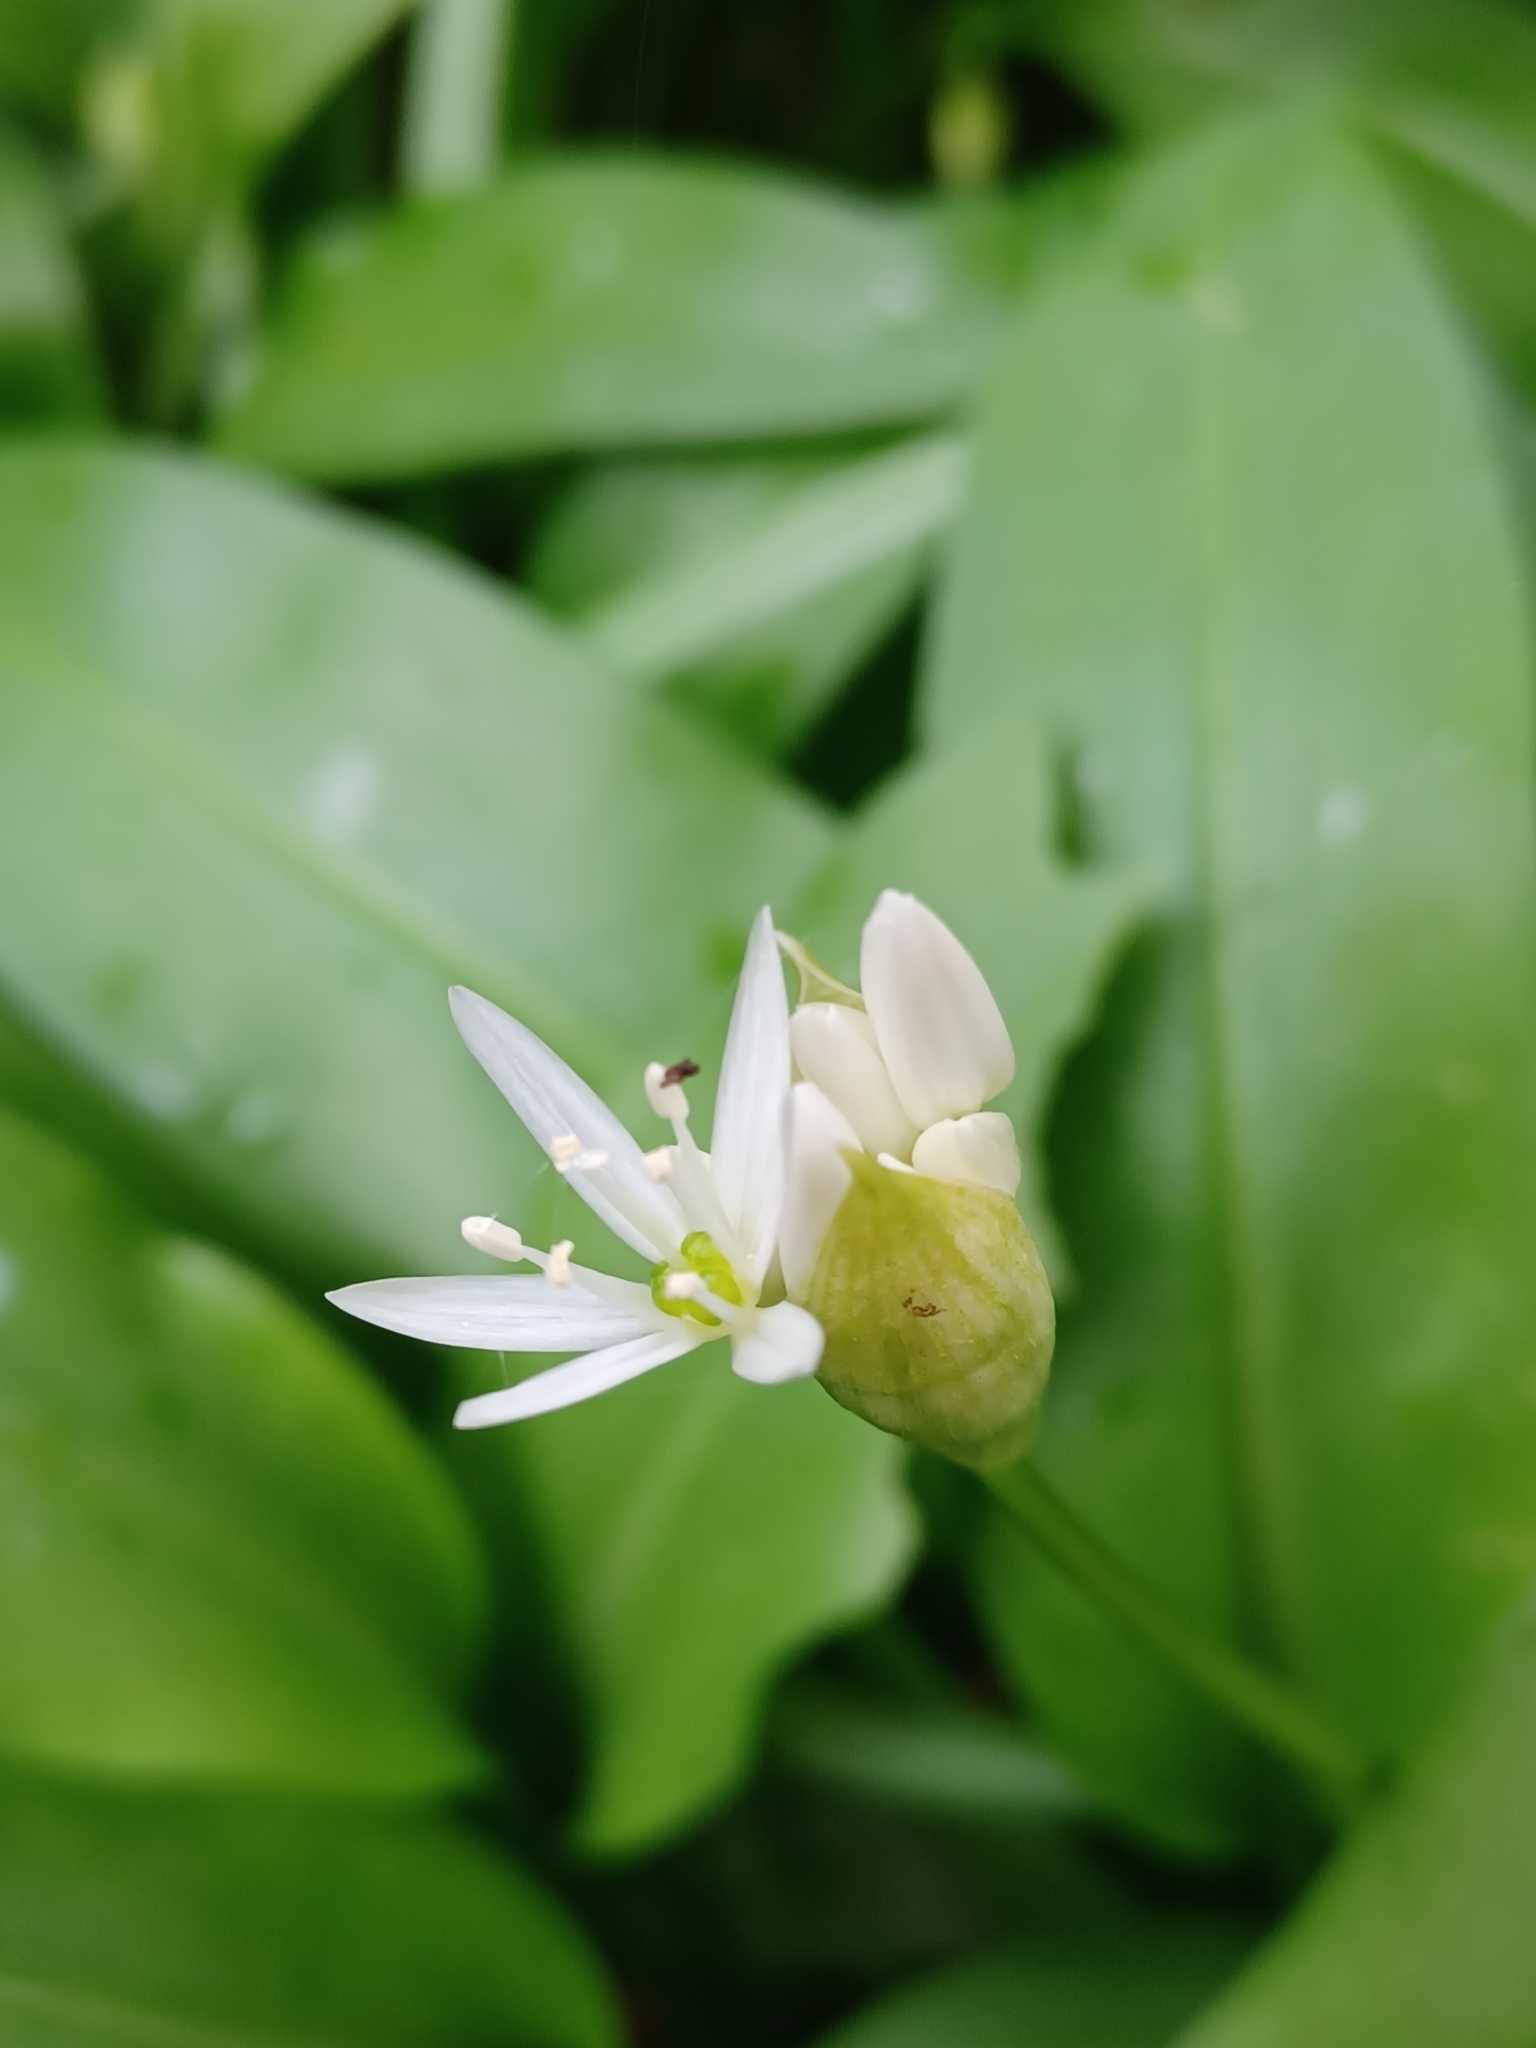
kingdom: Plantae
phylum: Tracheophyta
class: Liliopsida
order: Asparagales
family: Amaryllidaceae
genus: Allium
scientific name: Allium ursinum
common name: Ramsons
